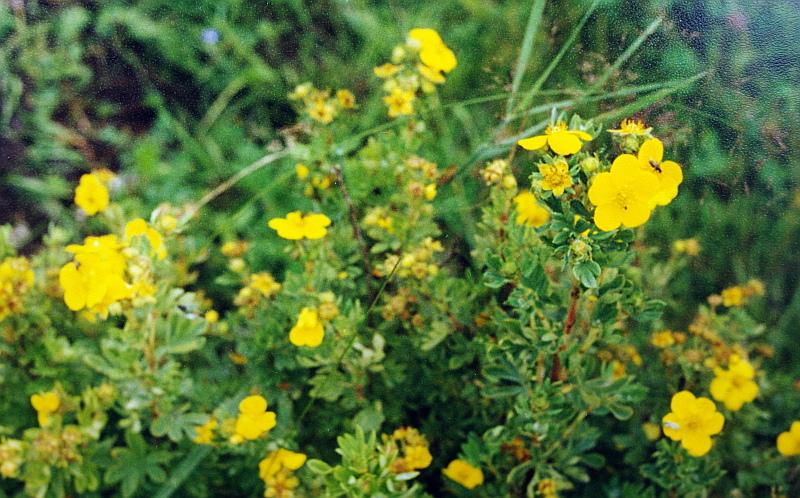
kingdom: Plantae
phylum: Tracheophyta
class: Magnoliopsida
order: Rosales
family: Rosaceae
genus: Dasiphora
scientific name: Dasiphora fruticosa
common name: Shrubby cinquefoil
